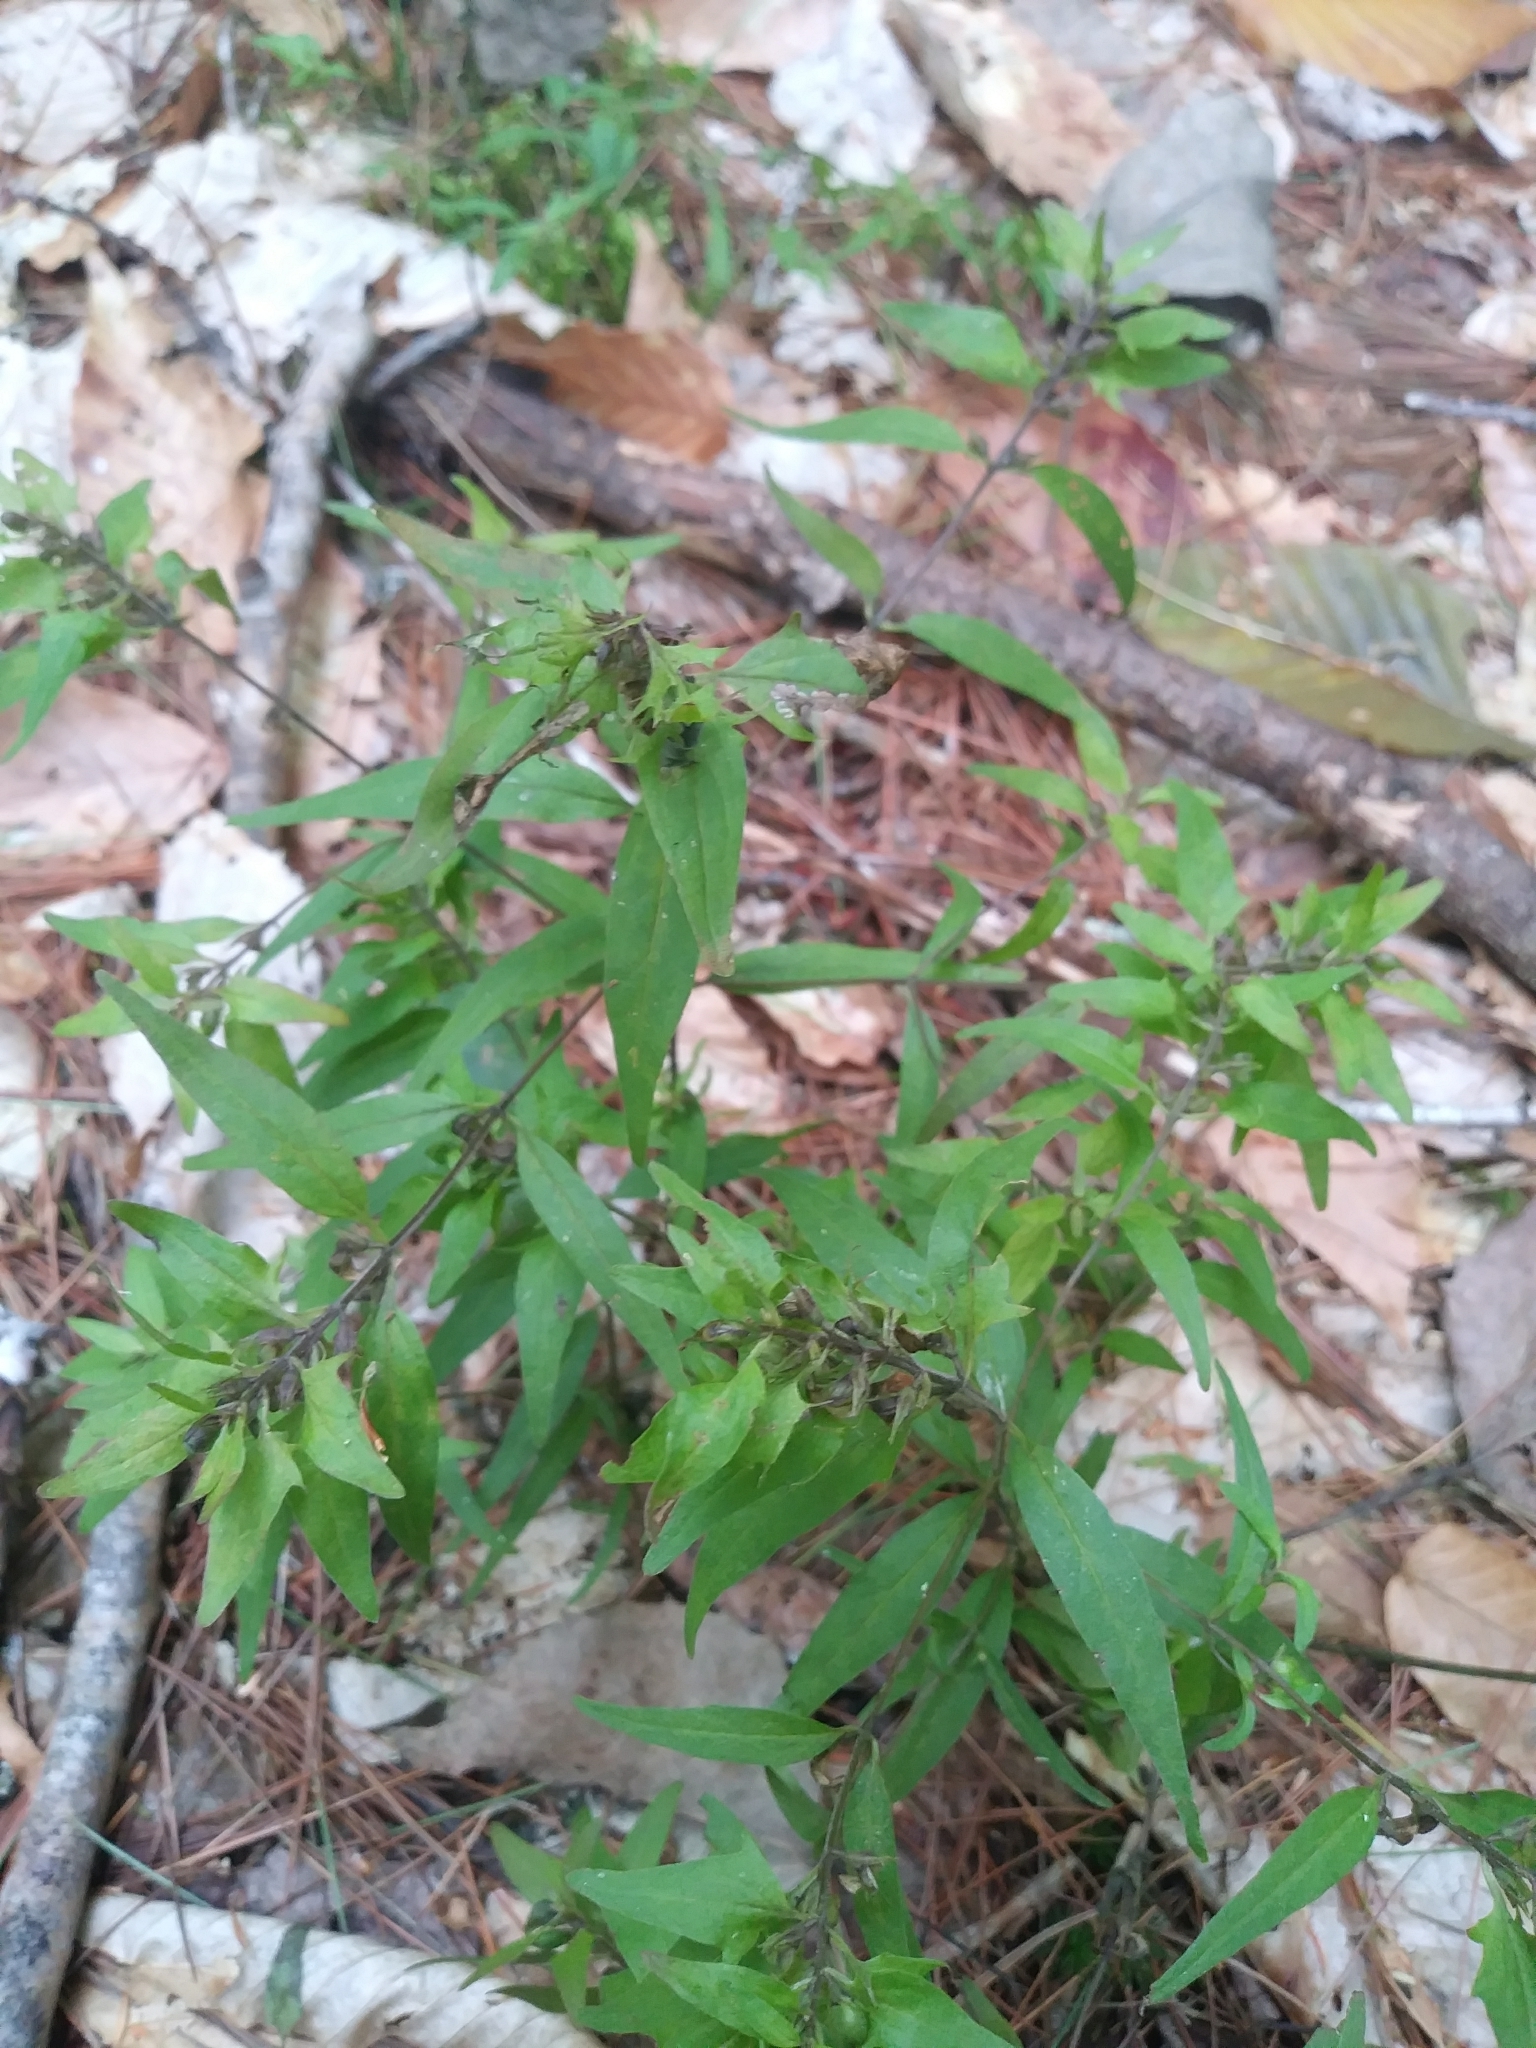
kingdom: Plantae
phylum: Tracheophyta
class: Magnoliopsida
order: Lamiales
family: Orobanchaceae
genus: Melampyrum
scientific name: Melampyrum lineare
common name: American cow-wheat
